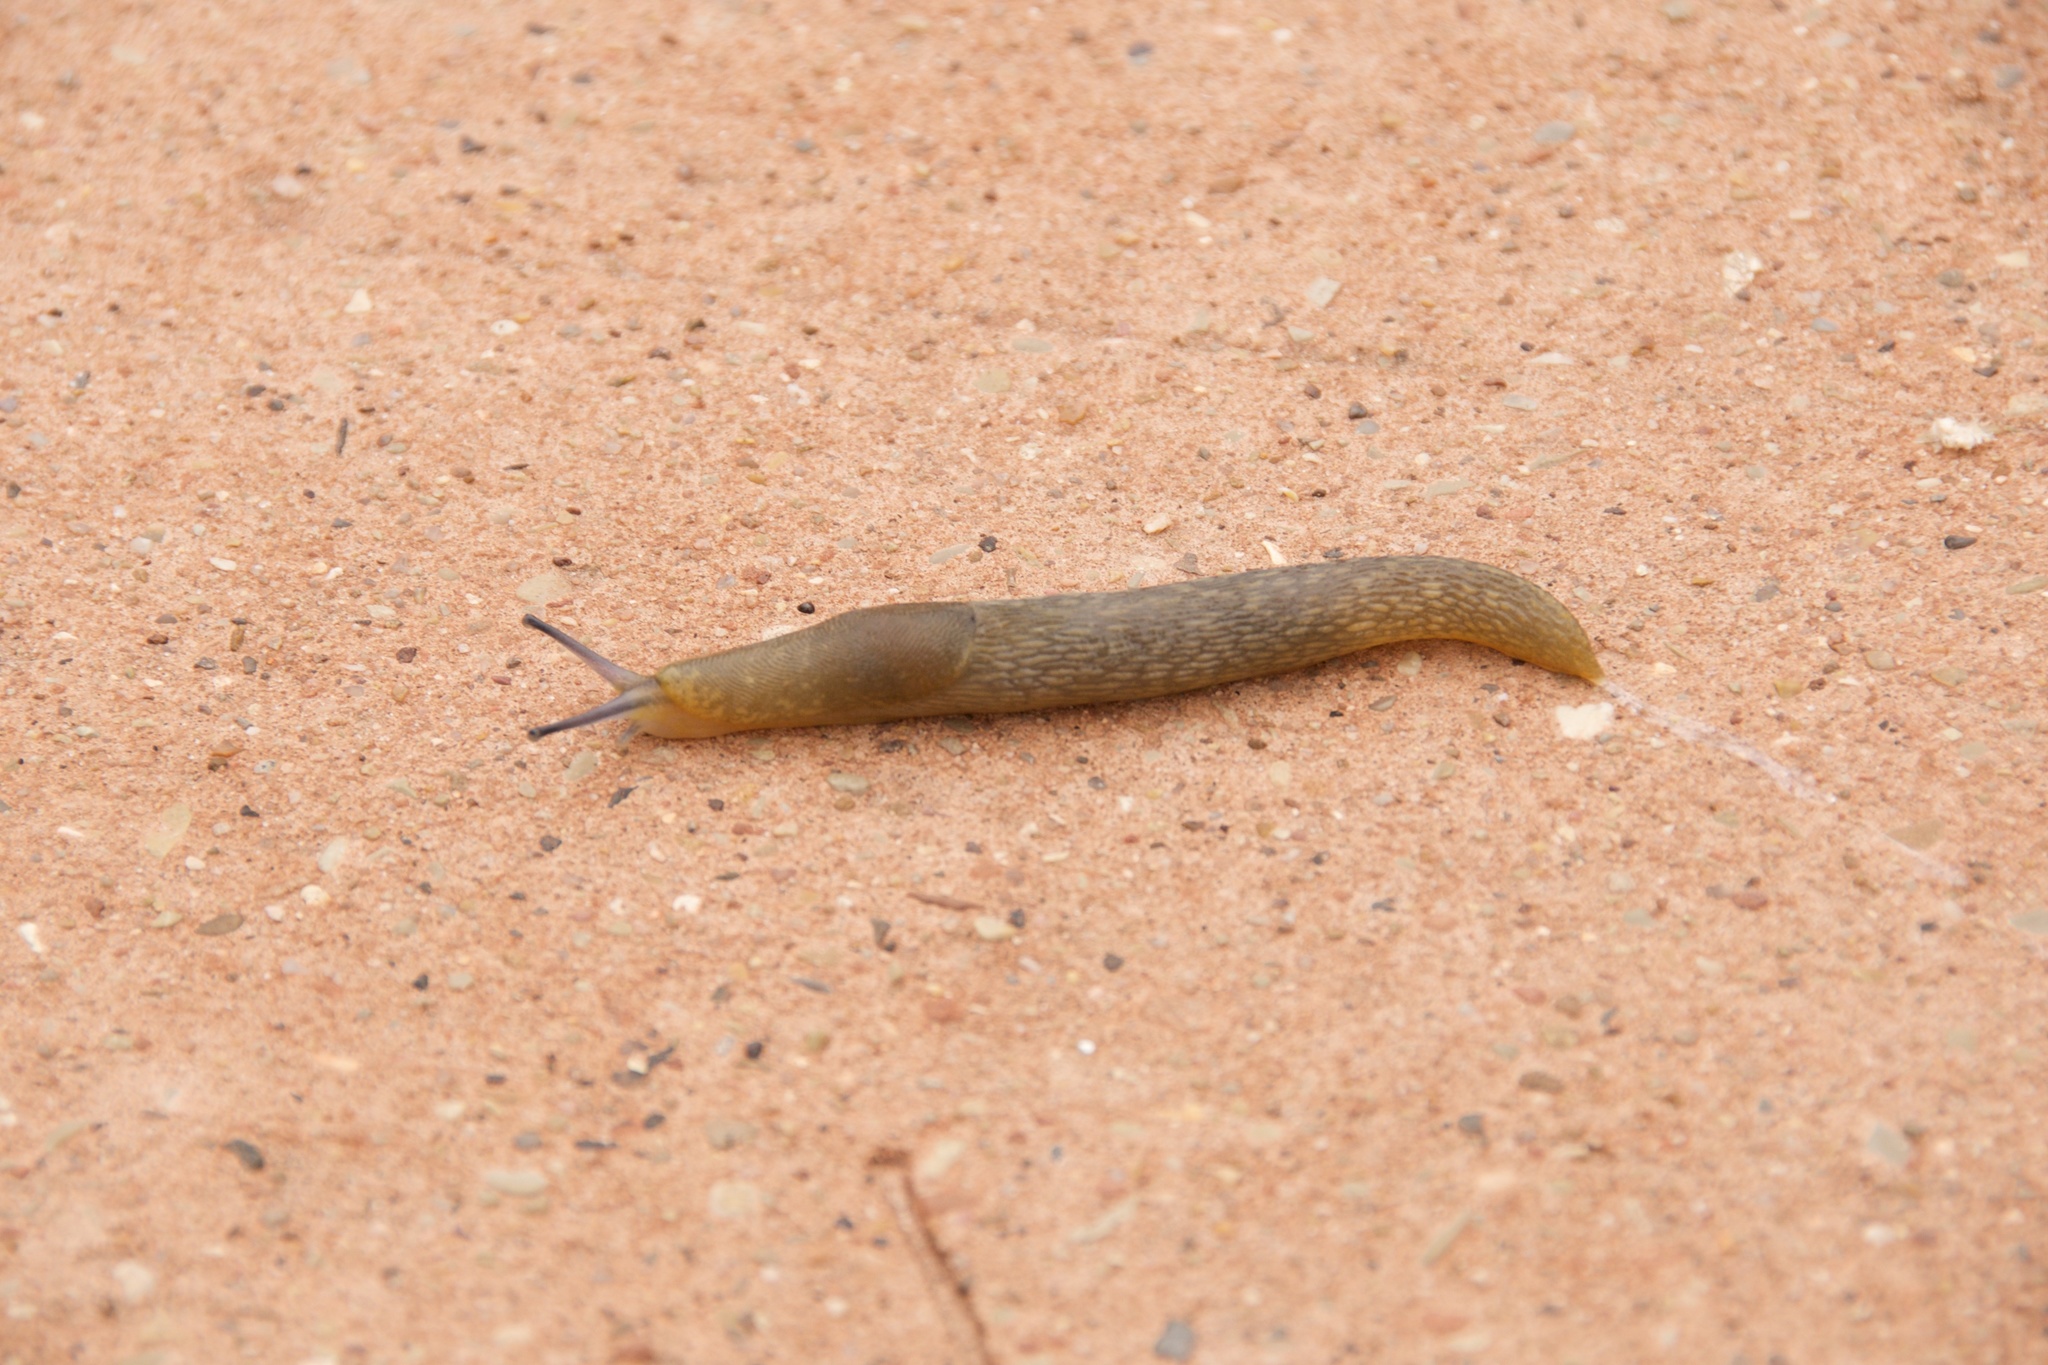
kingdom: Animalia
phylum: Mollusca
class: Gastropoda
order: Stylommatophora
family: Limacidae
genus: Limacus
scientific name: Limacus flavus
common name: Yellow gardenslug
